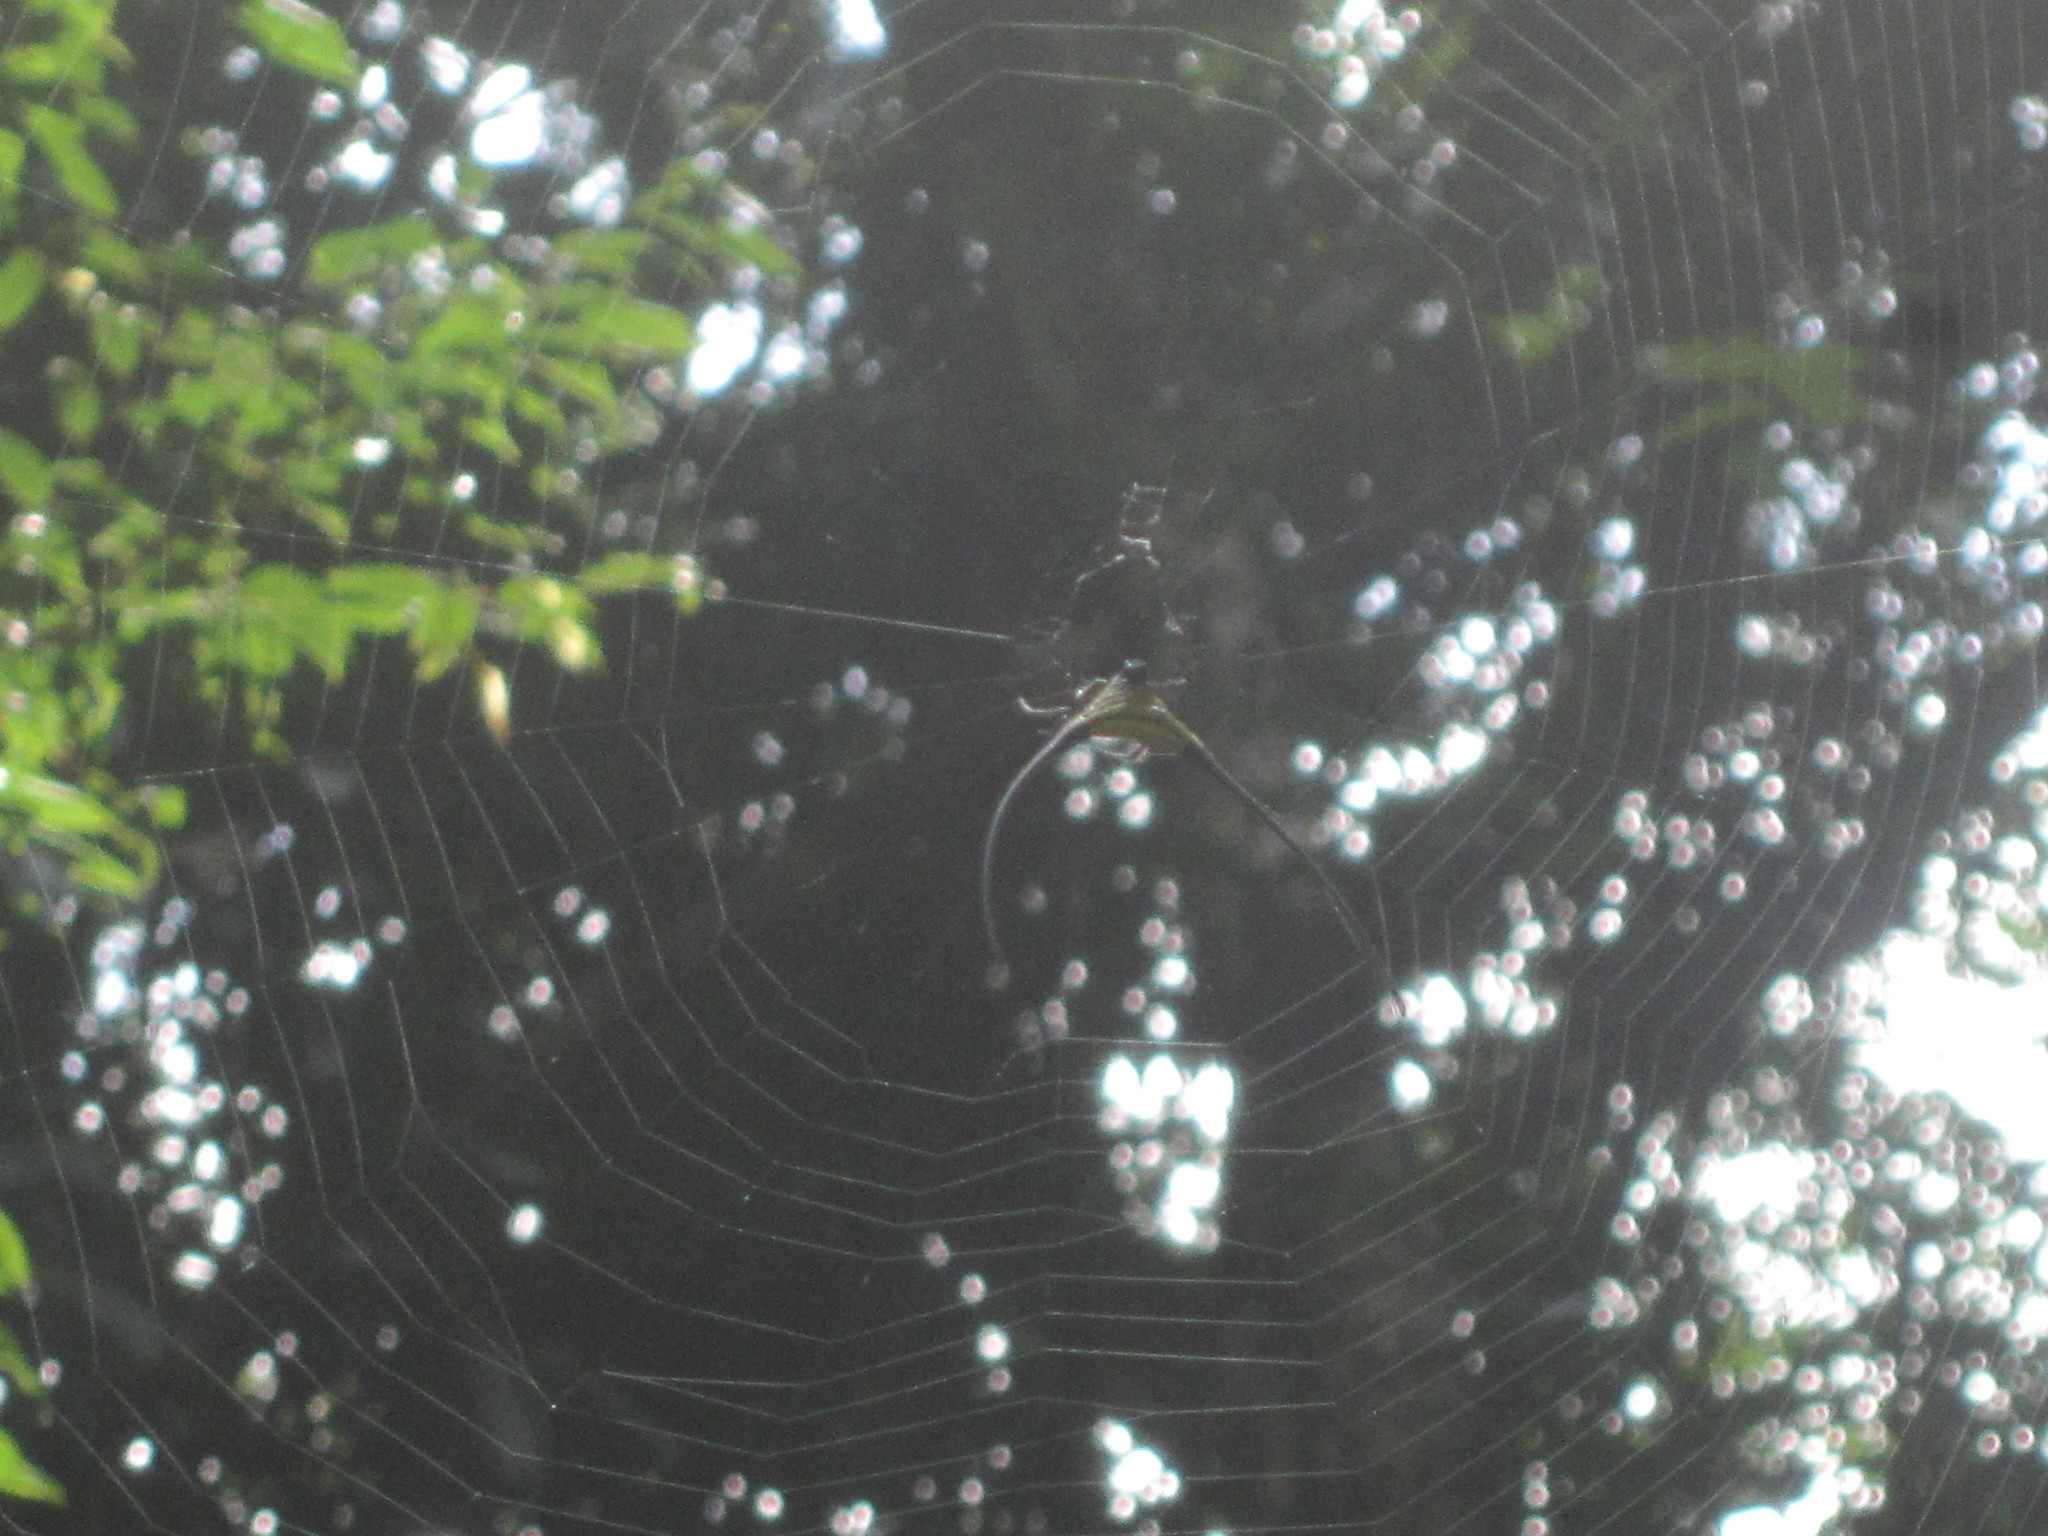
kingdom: Animalia
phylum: Arthropoda
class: Arachnida
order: Araneae
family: Araneidae
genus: Macracantha
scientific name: Macracantha arcuata
